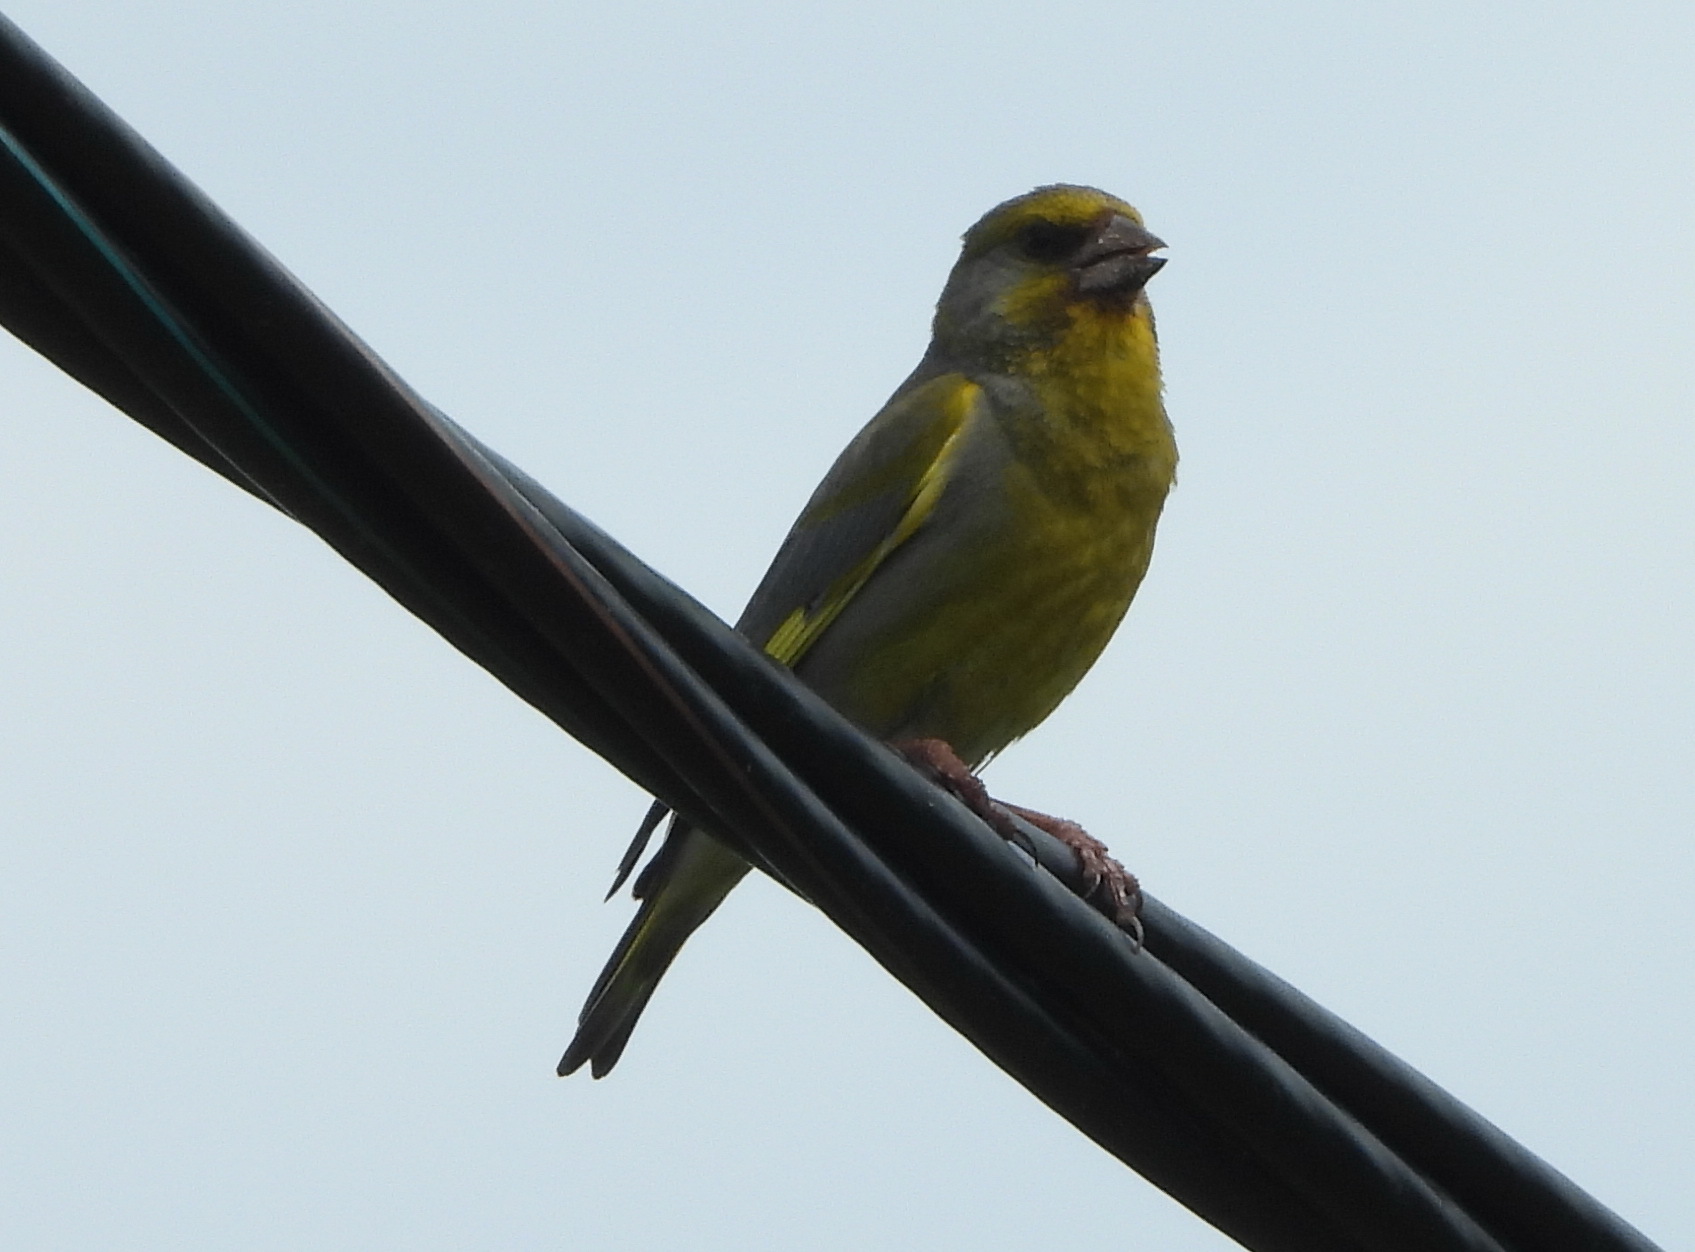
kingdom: Plantae
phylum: Tracheophyta
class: Liliopsida
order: Poales
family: Poaceae
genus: Chloris
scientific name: Chloris chloris
